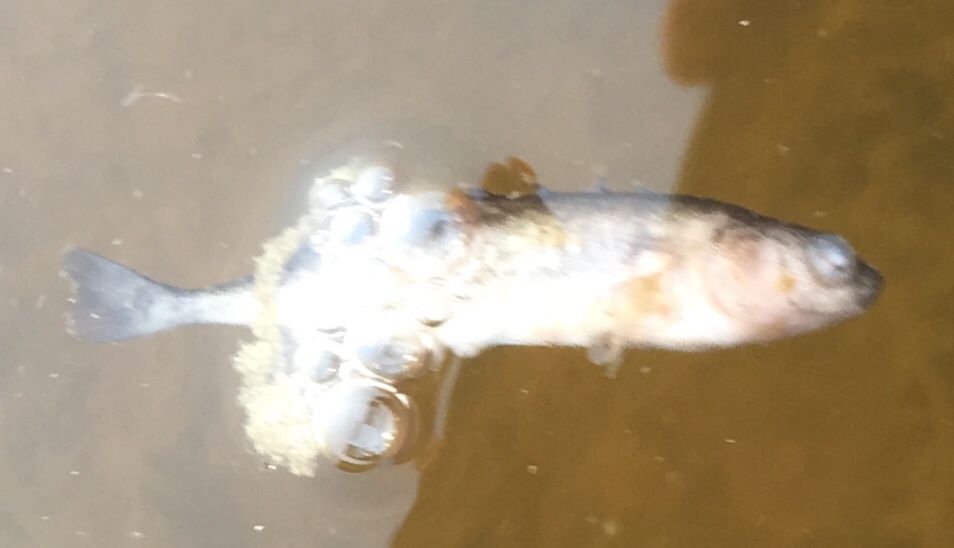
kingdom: Animalia
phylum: Chordata
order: Gasterosteiformes
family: Gasterosteidae
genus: Culaea
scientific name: Culaea inconstans
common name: Brook stickleback
